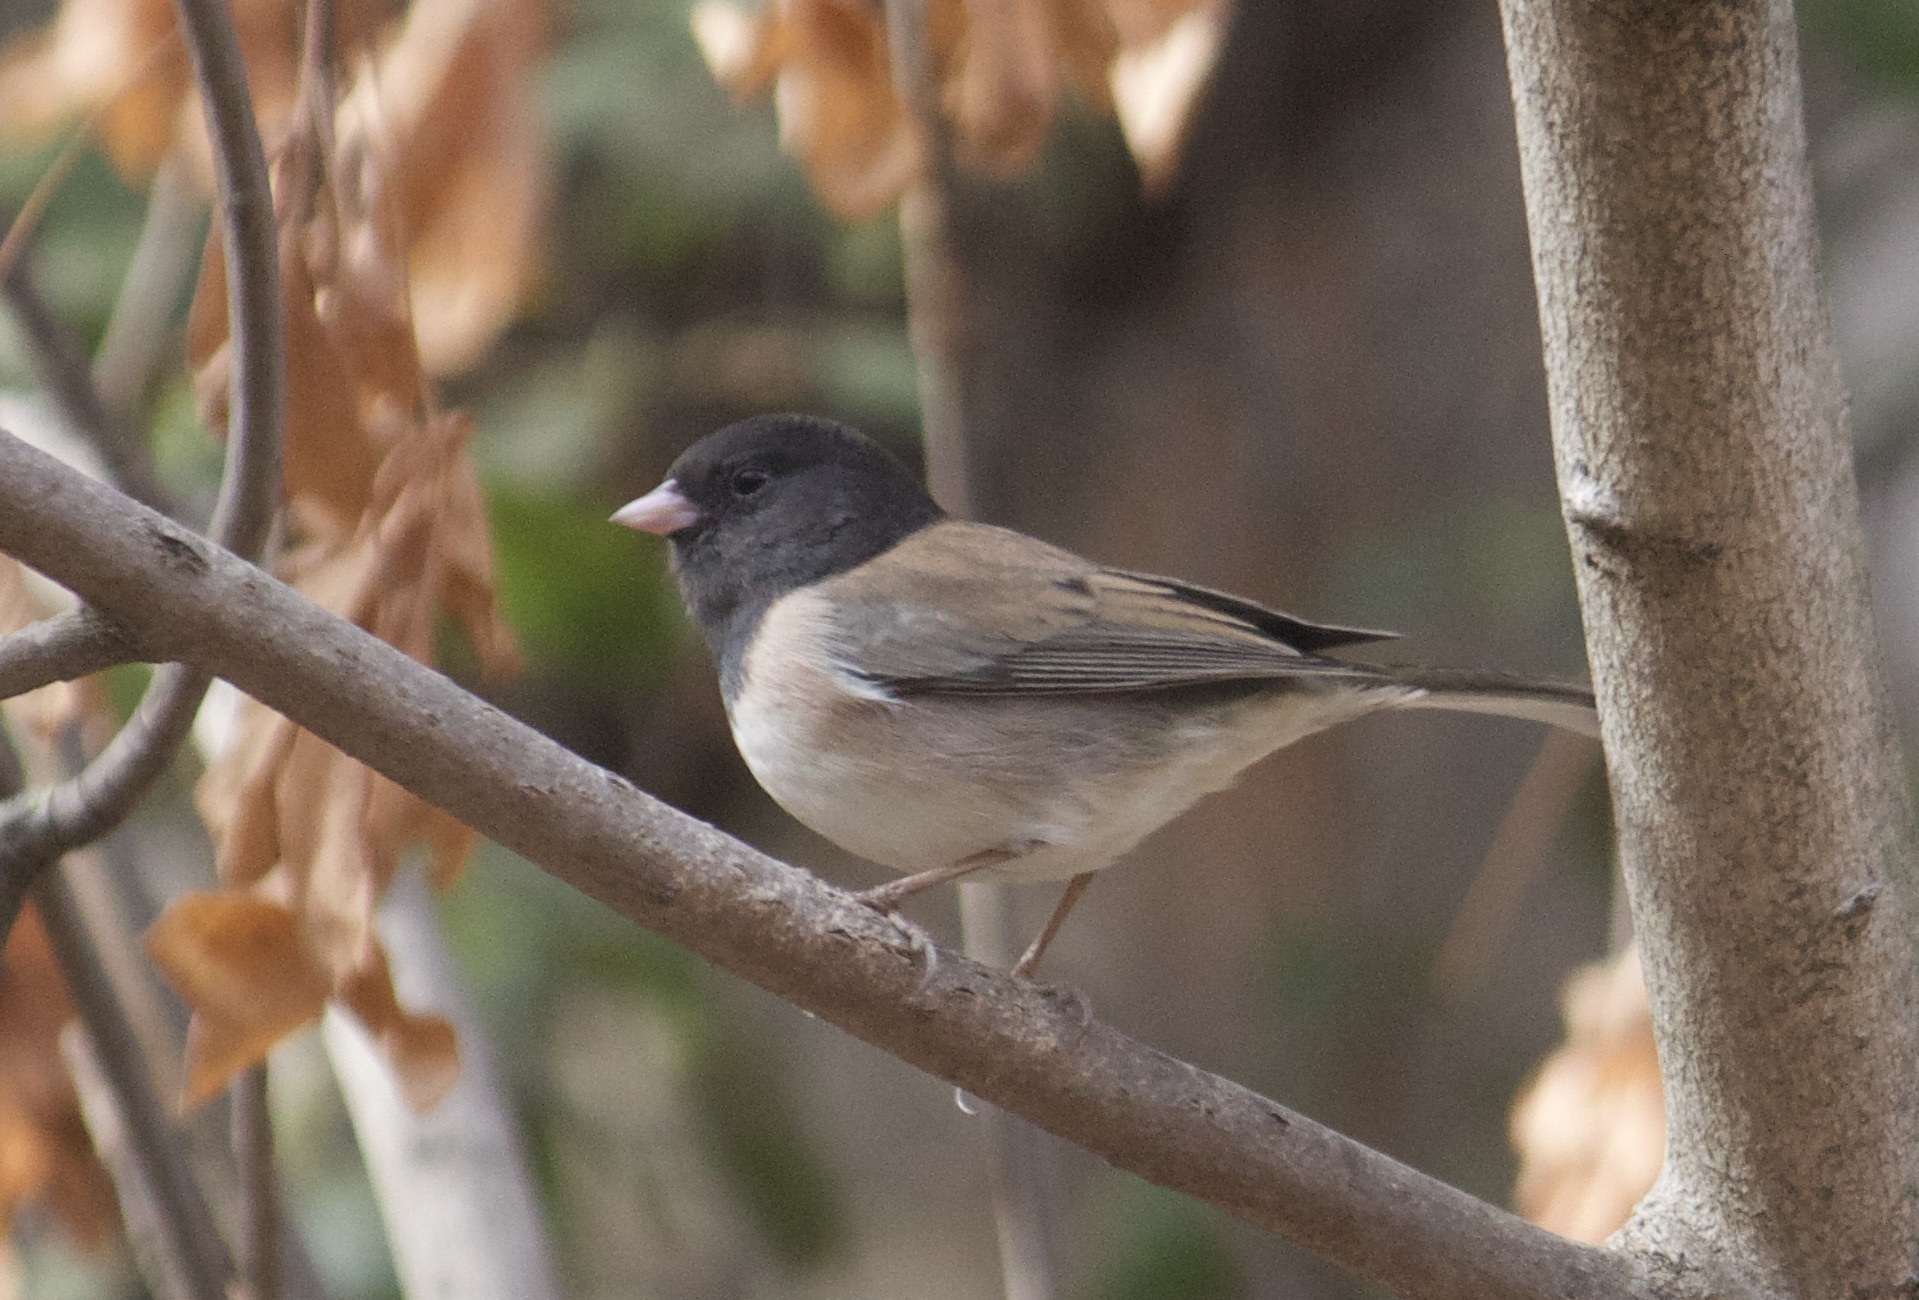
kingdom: Animalia
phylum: Chordata
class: Aves
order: Passeriformes
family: Passerellidae
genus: Junco
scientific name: Junco hyemalis
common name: Dark-eyed junco
